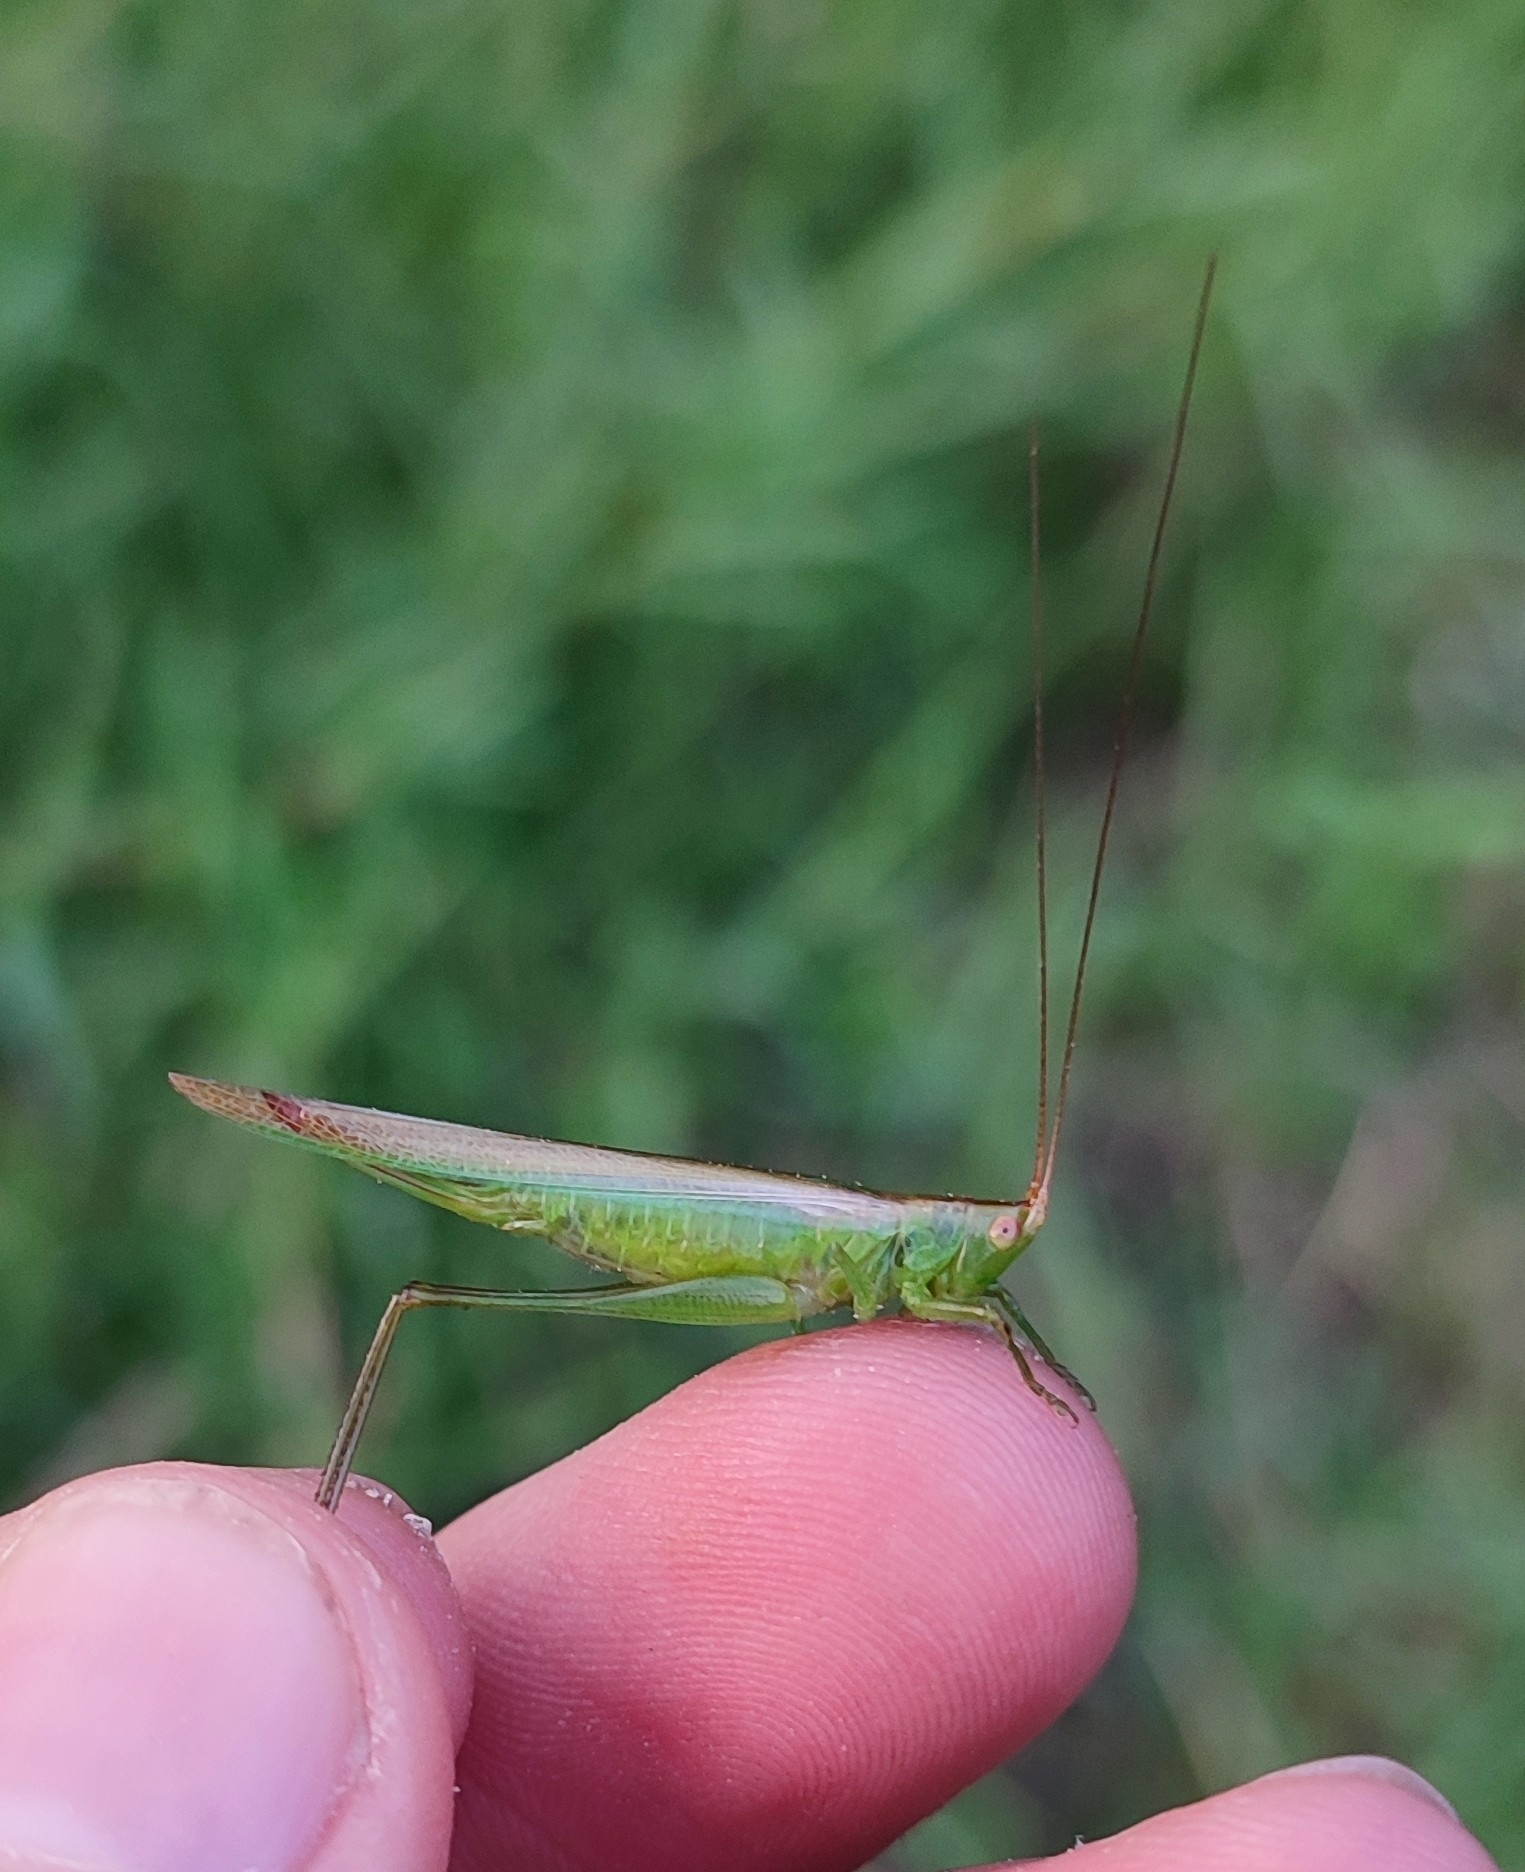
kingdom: Animalia
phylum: Arthropoda
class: Insecta
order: Orthoptera
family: Tettigoniidae
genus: Conocephalus
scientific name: Conocephalus conocephalus
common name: African meadow katydid
